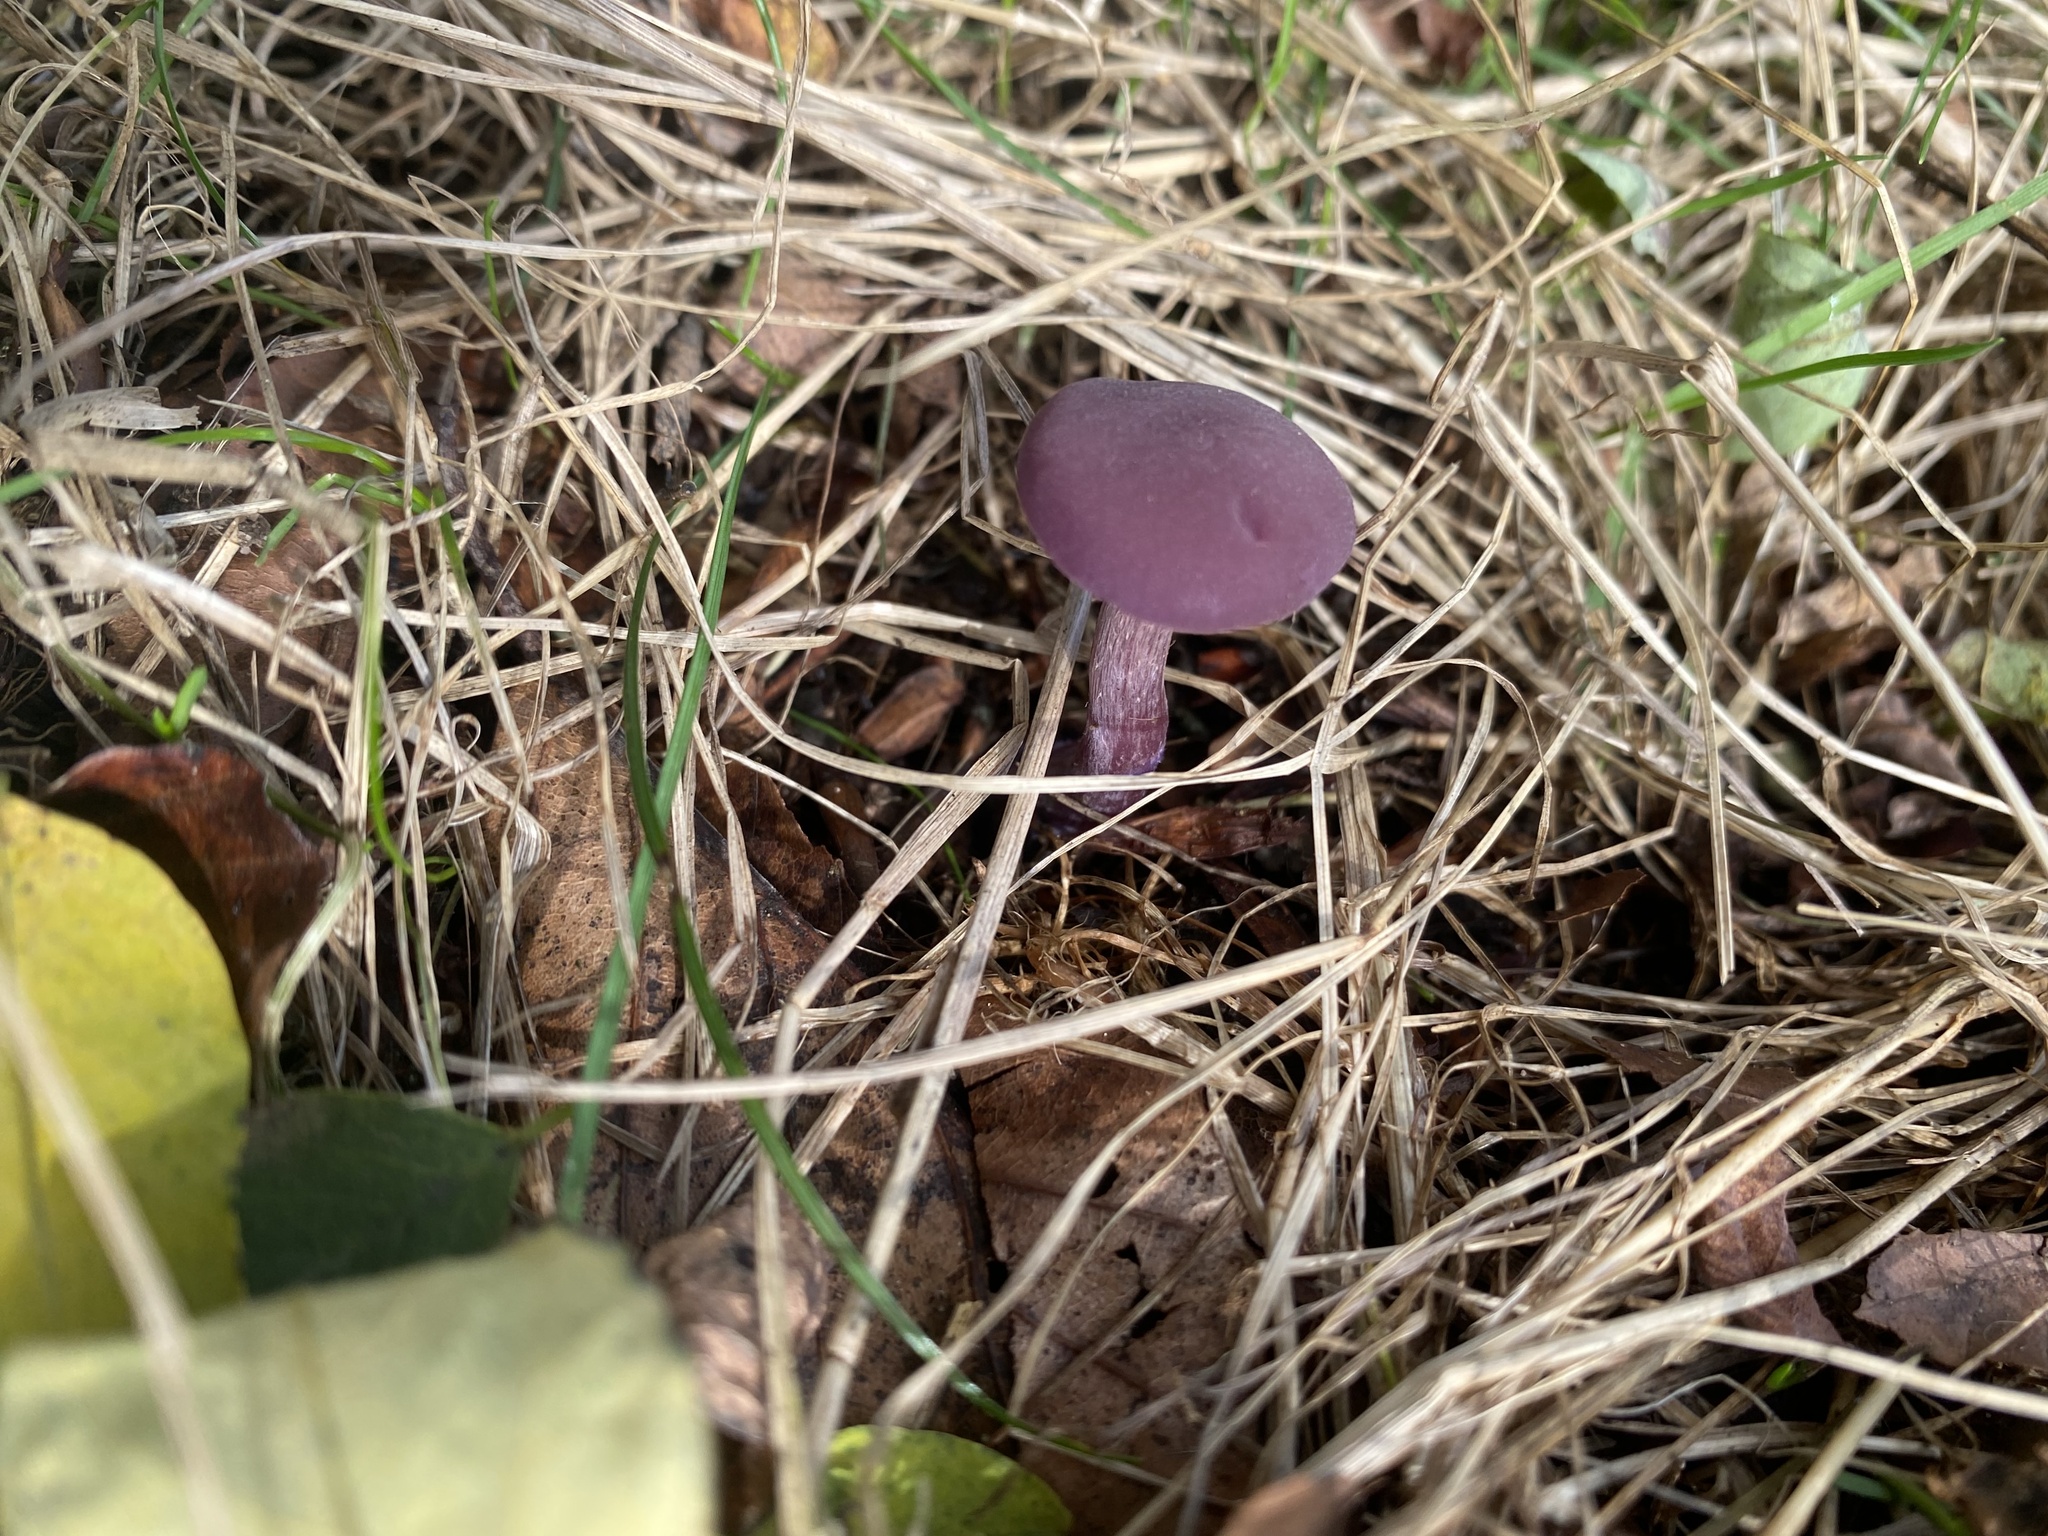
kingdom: Fungi
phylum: Basidiomycota
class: Agaricomycetes
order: Agaricales
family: Hydnangiaceae
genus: Laccaria
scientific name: Laccaria amethystina
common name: Amethyst deceiver
